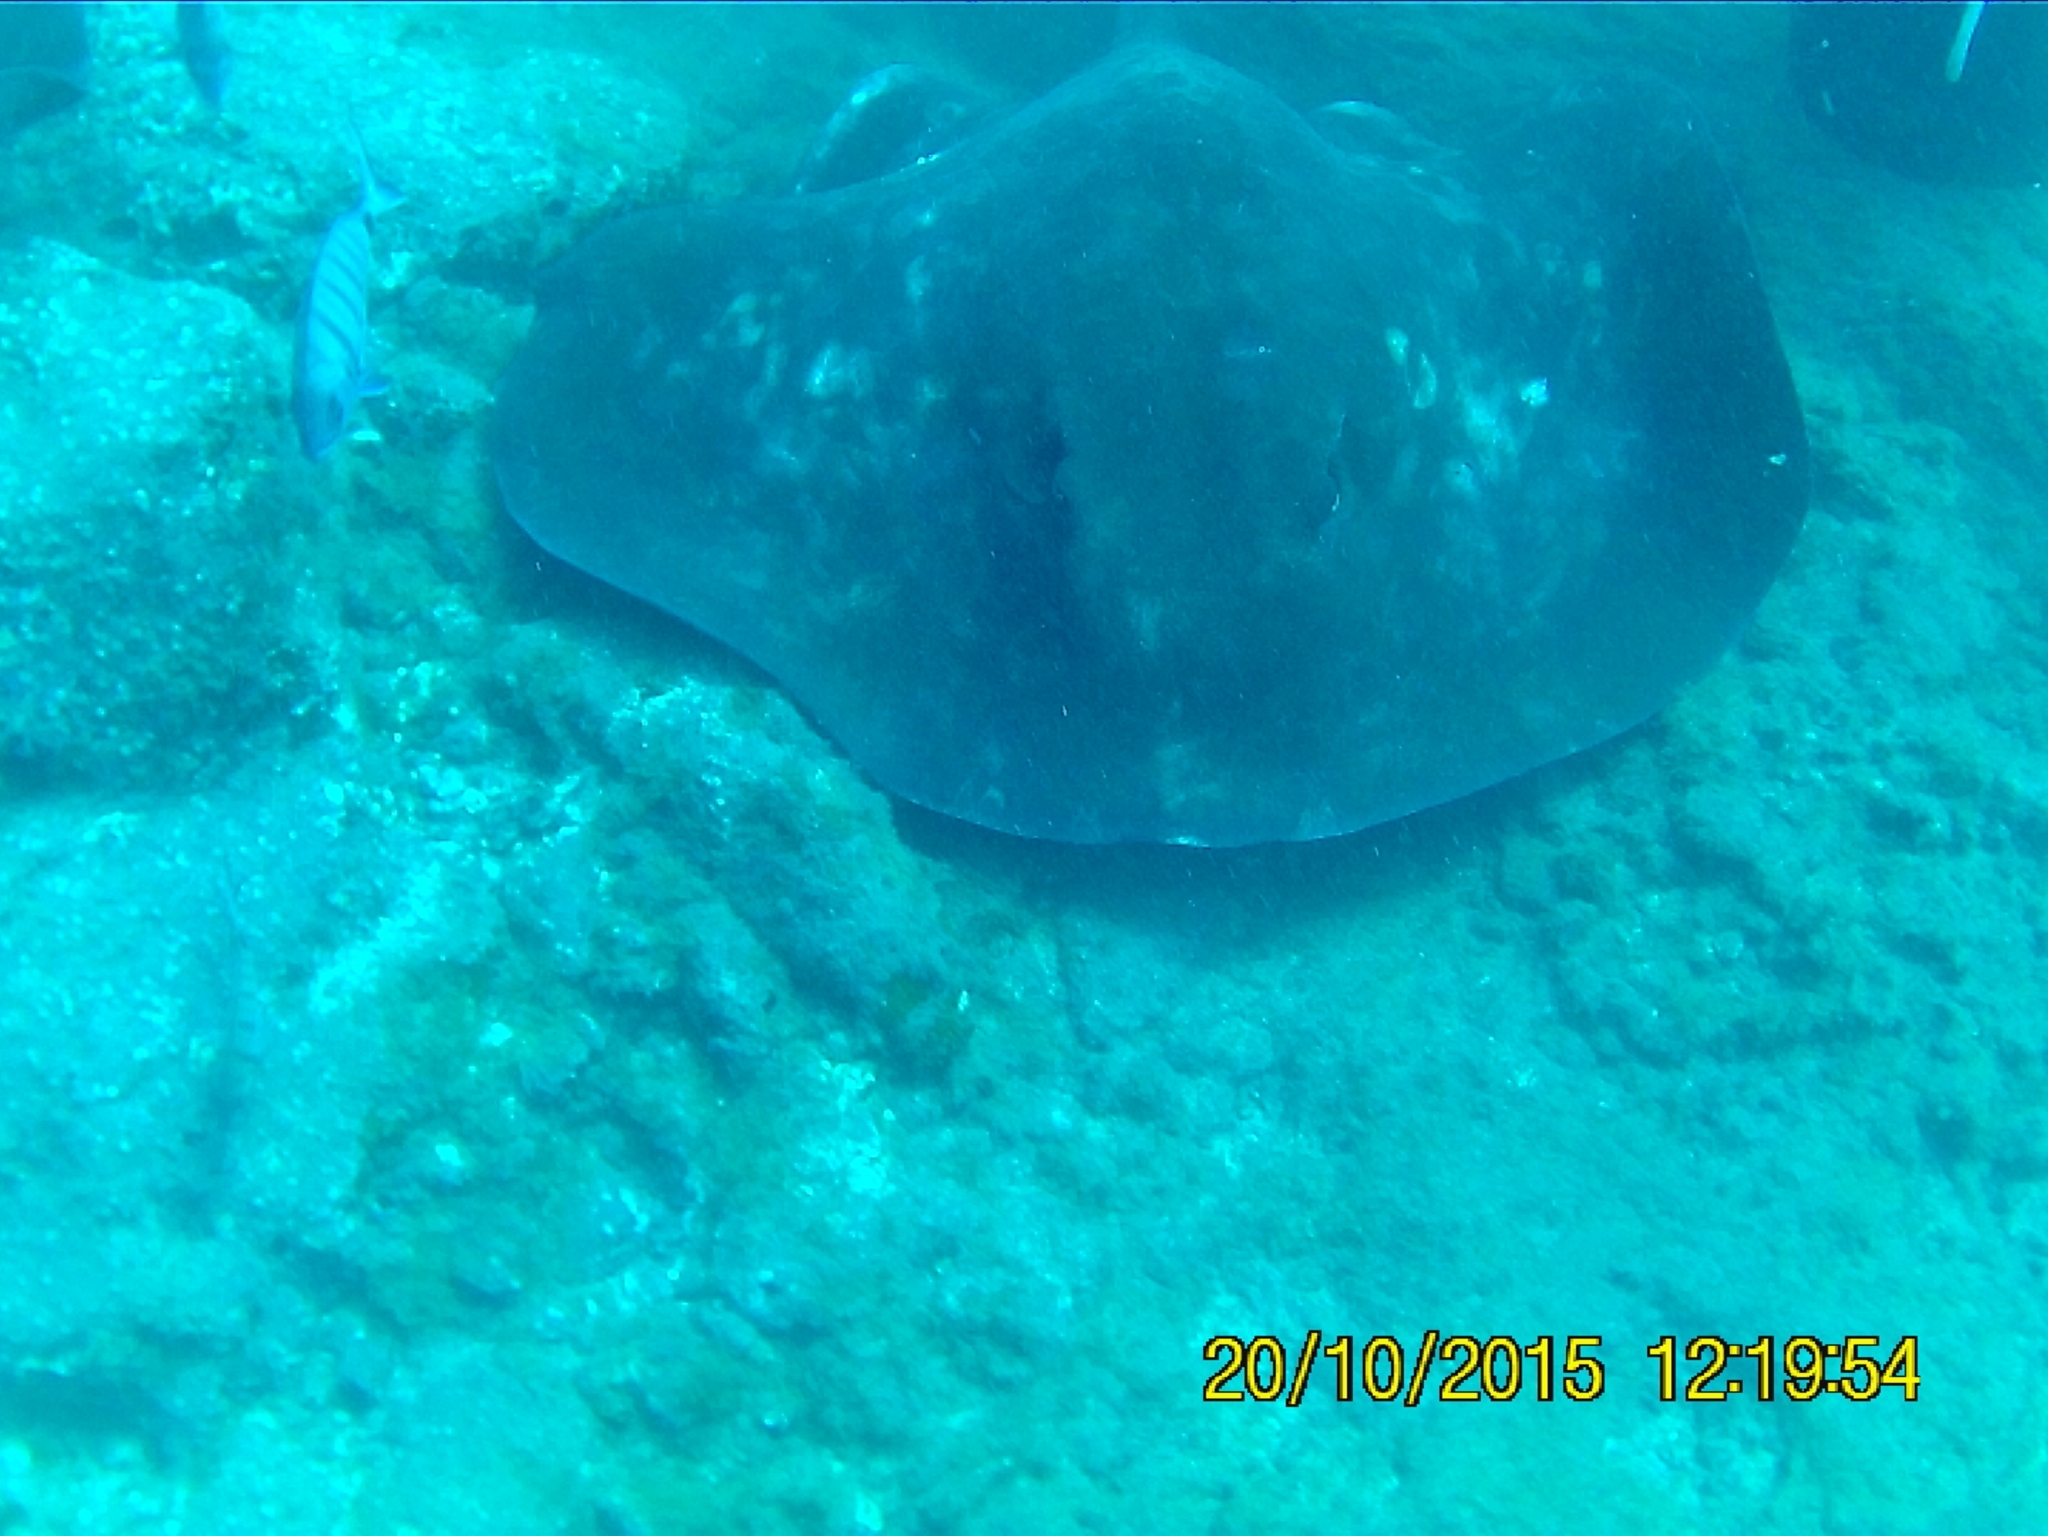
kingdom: Animalia
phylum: Chordata
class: Elasmobranchii
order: Myliobatiformes
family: Dasyatidae
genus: Taeniura
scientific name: Taeniura grabata
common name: Round stingray
